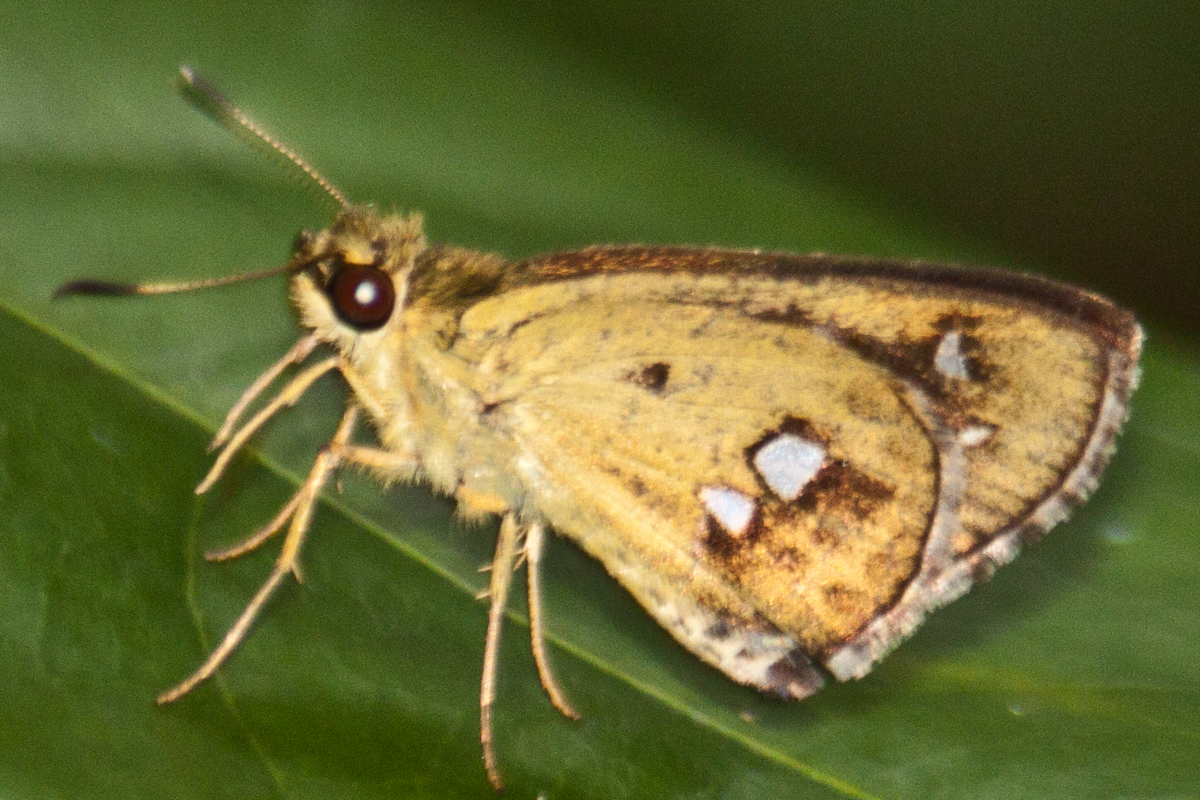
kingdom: Animalia
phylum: Arthropoda
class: Insecta
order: Lepidoptera
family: Hesperiidae
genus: Scobura
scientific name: Scobura isota
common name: Swinhoe's forest bob
